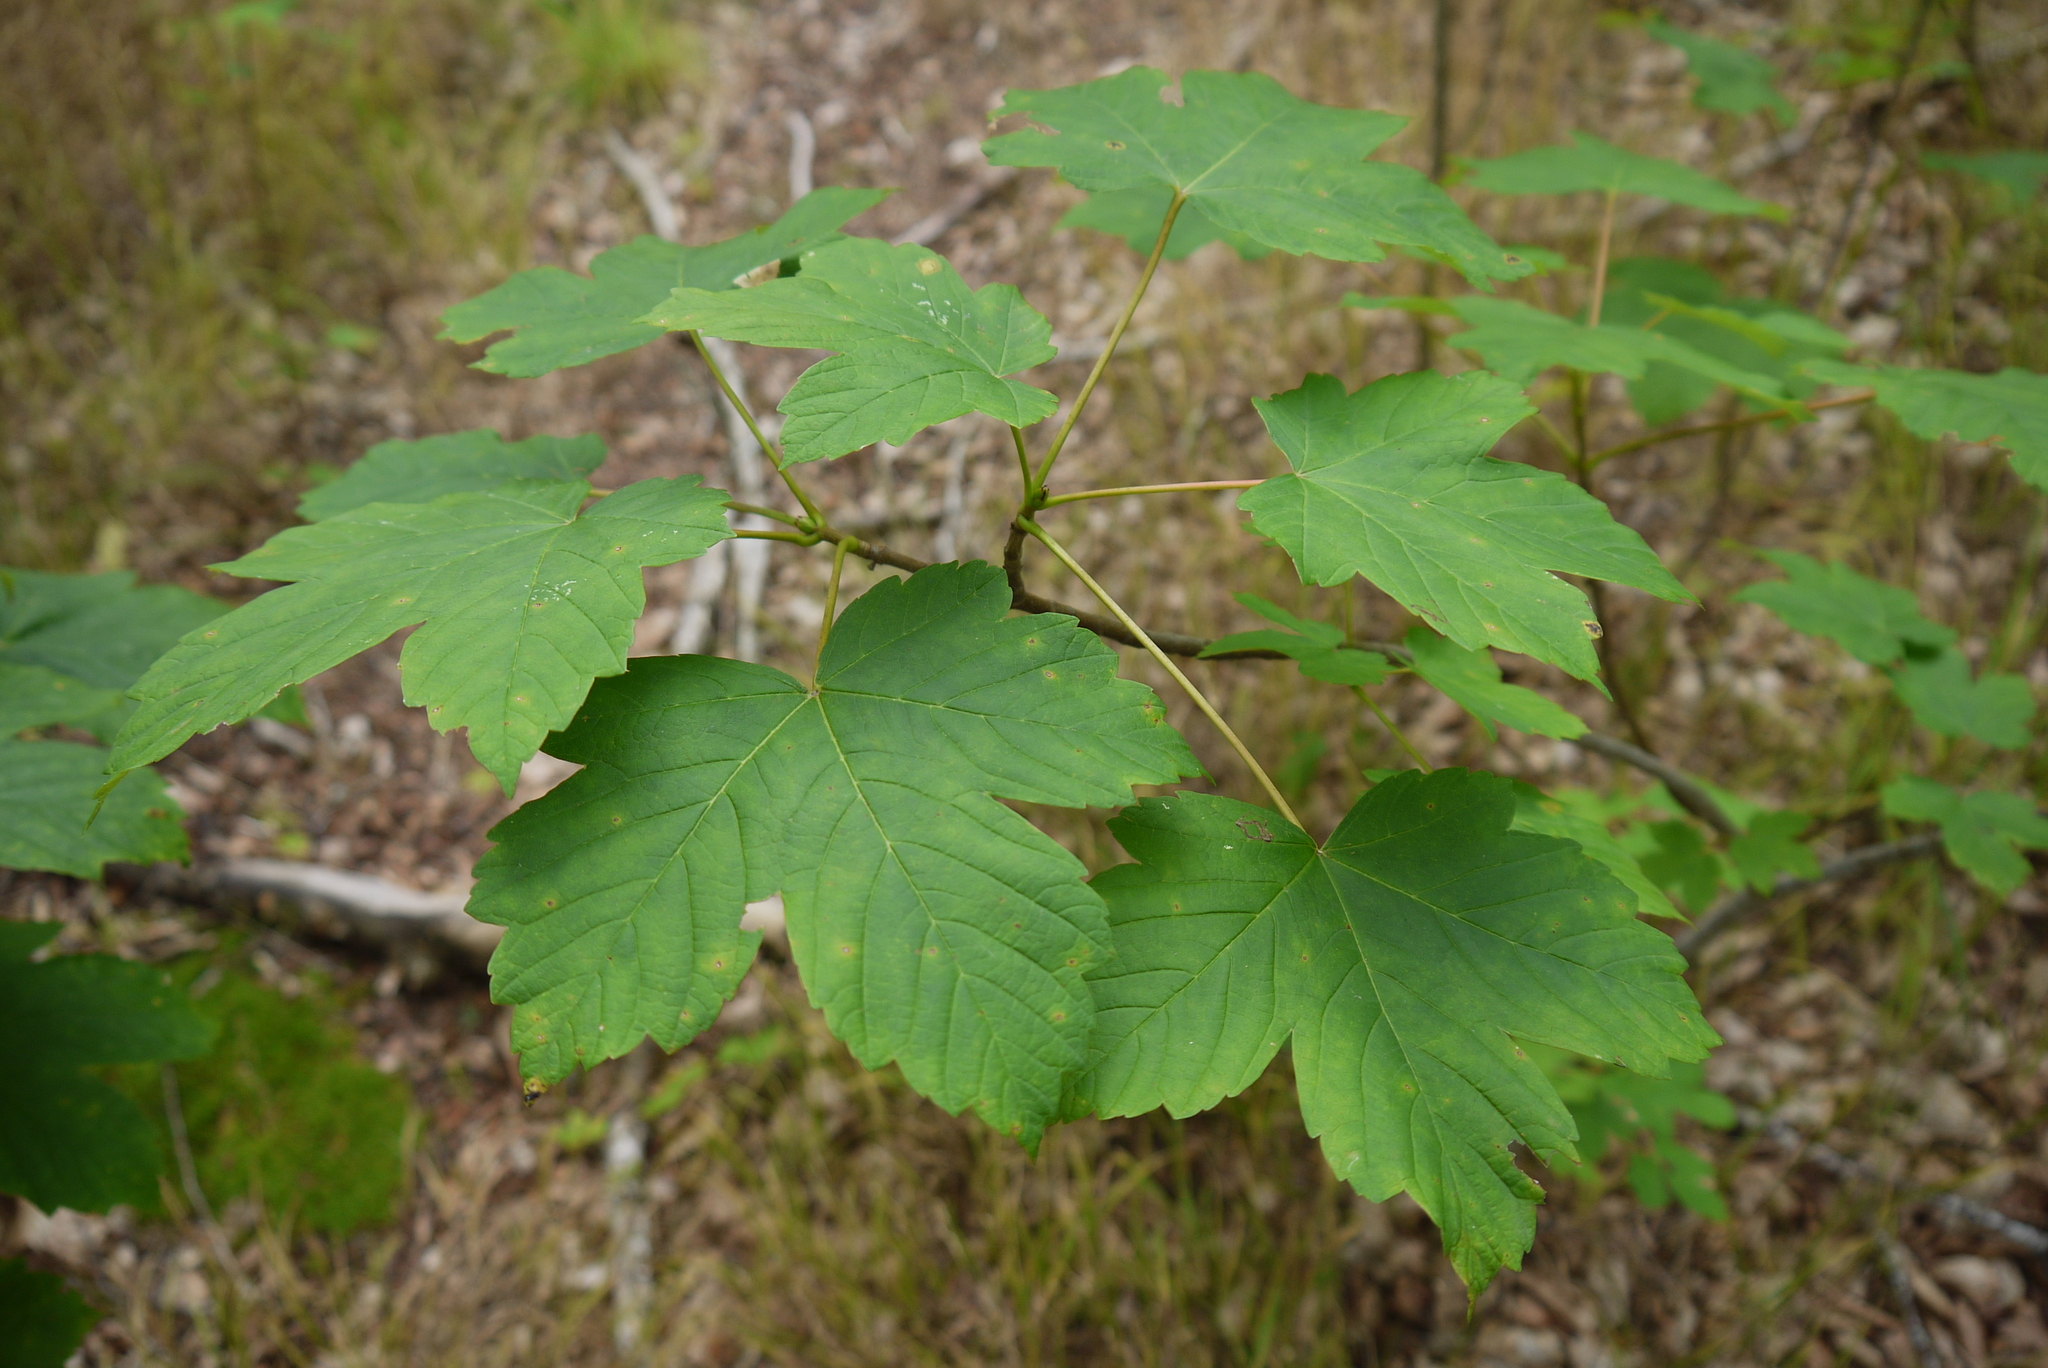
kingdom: Plantae
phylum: Tracheophyta
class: Magnoliopsida
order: Sapindales
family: Sapindaceae
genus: Acer
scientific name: Acer pseudoplatanus
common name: Sycamore
